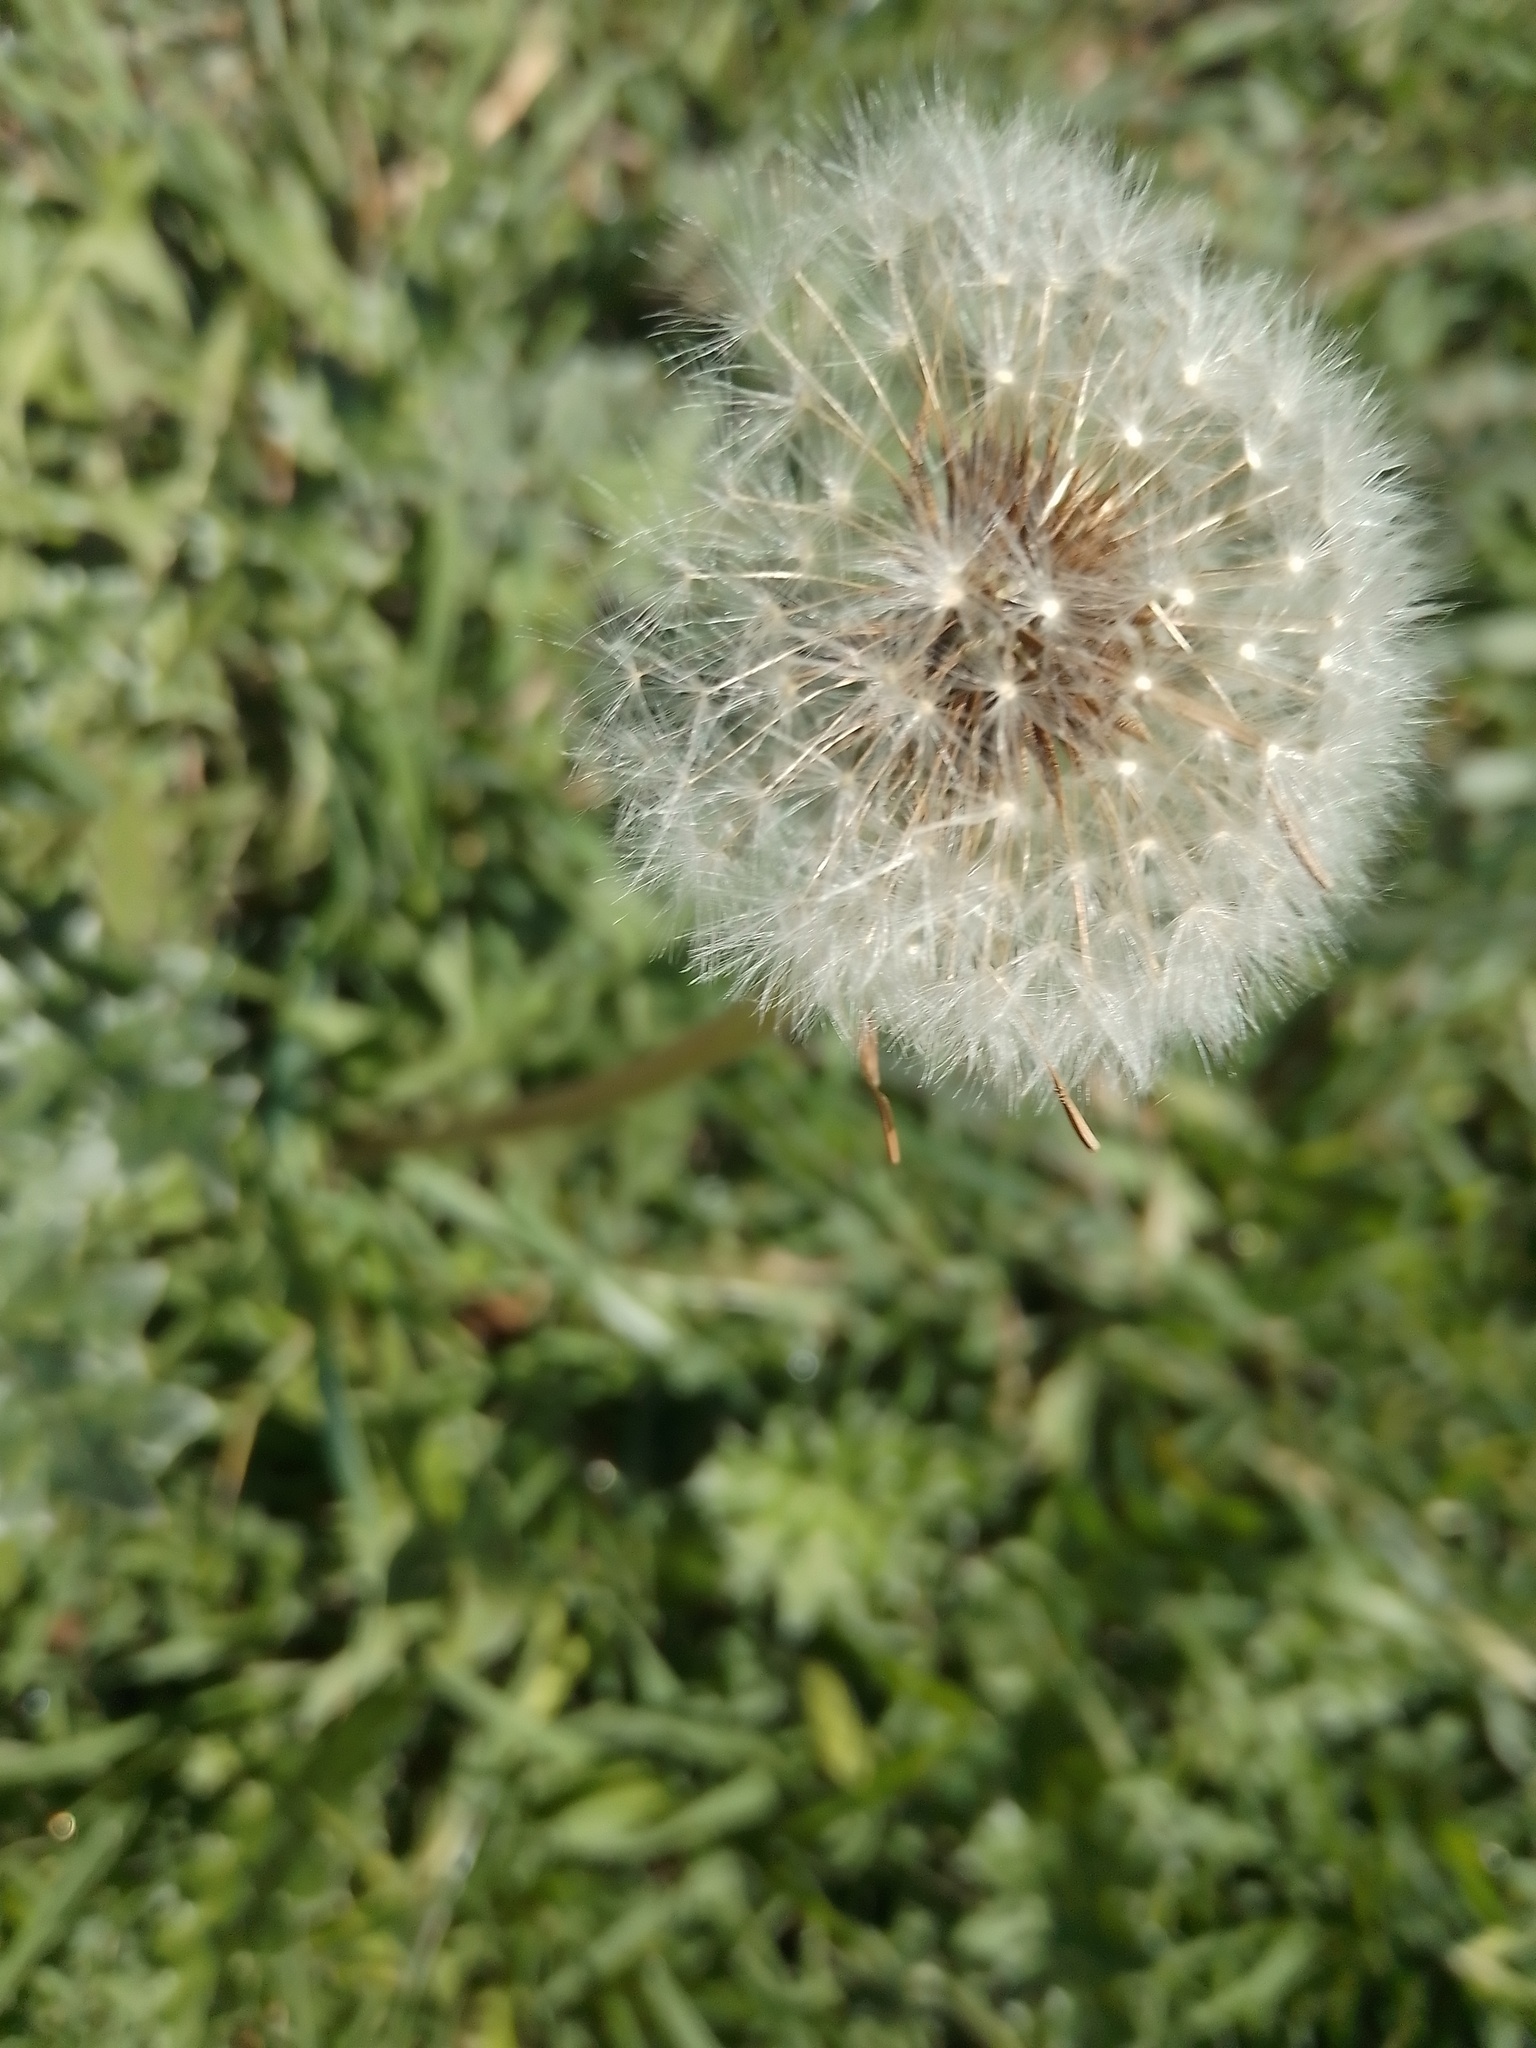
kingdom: Plantae
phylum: Tracheophyta
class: Magnoliopsida
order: Asterales
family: Asteraceae
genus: Taraxacum
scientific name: Taraxacum officinale
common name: Common dandelion
